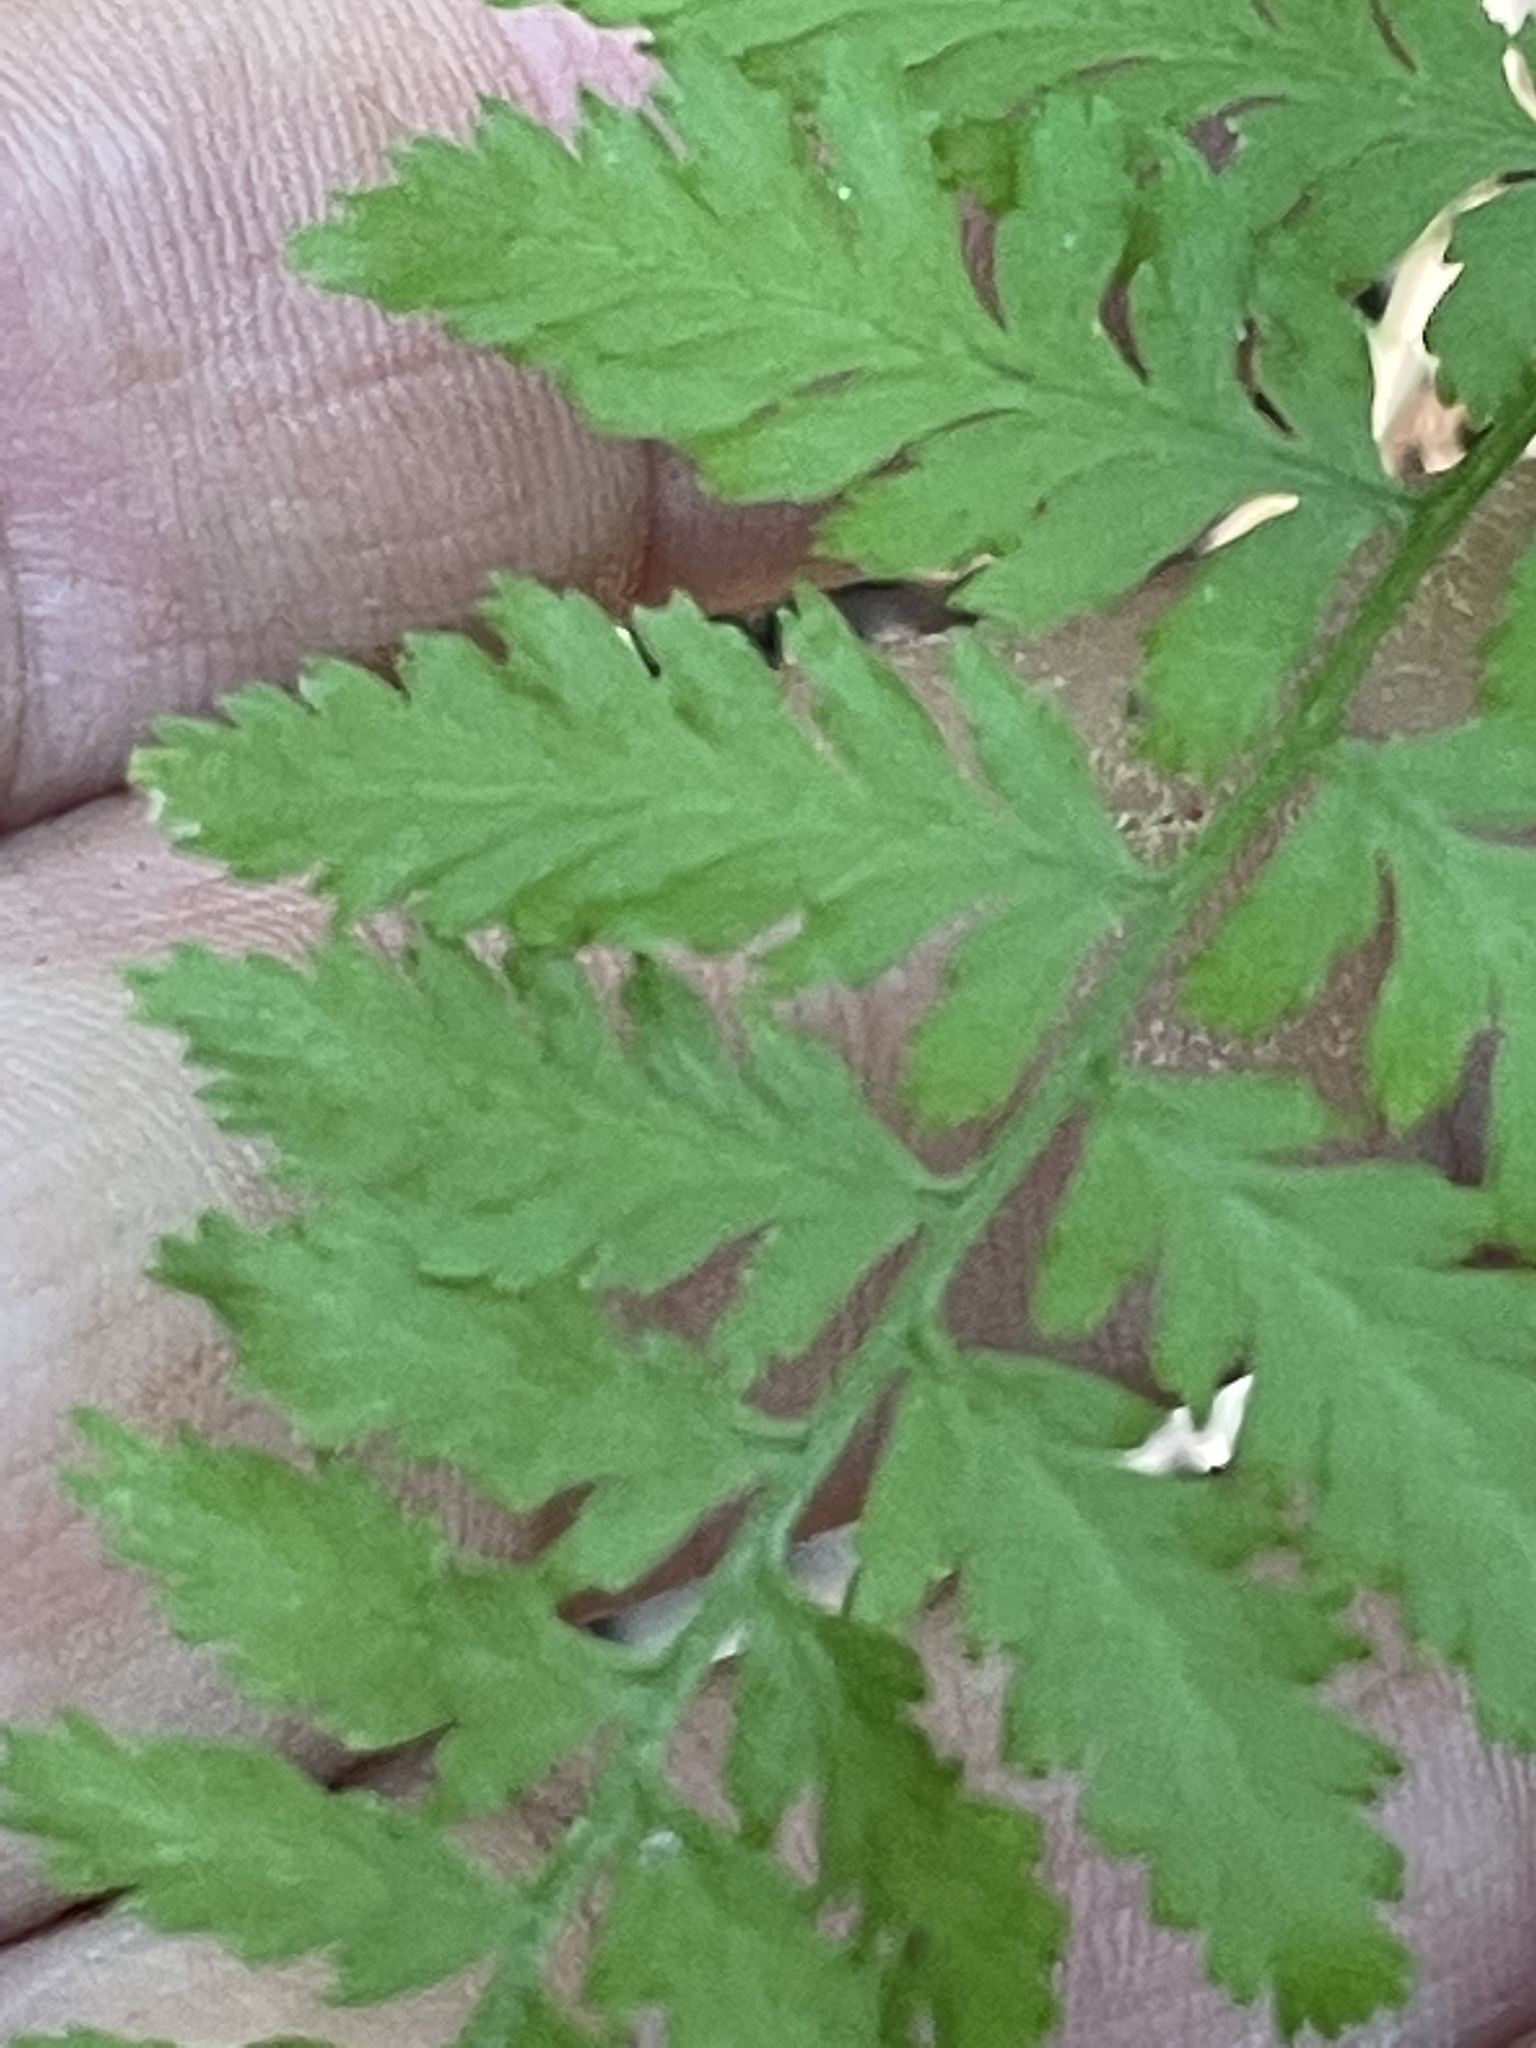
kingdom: Plantae
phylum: Tracheophyta
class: Polypodiopsida
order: Polypodiales
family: Athyriaceae
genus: Athyrium
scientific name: Athyrium asplenioides
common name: Southern lady fern
